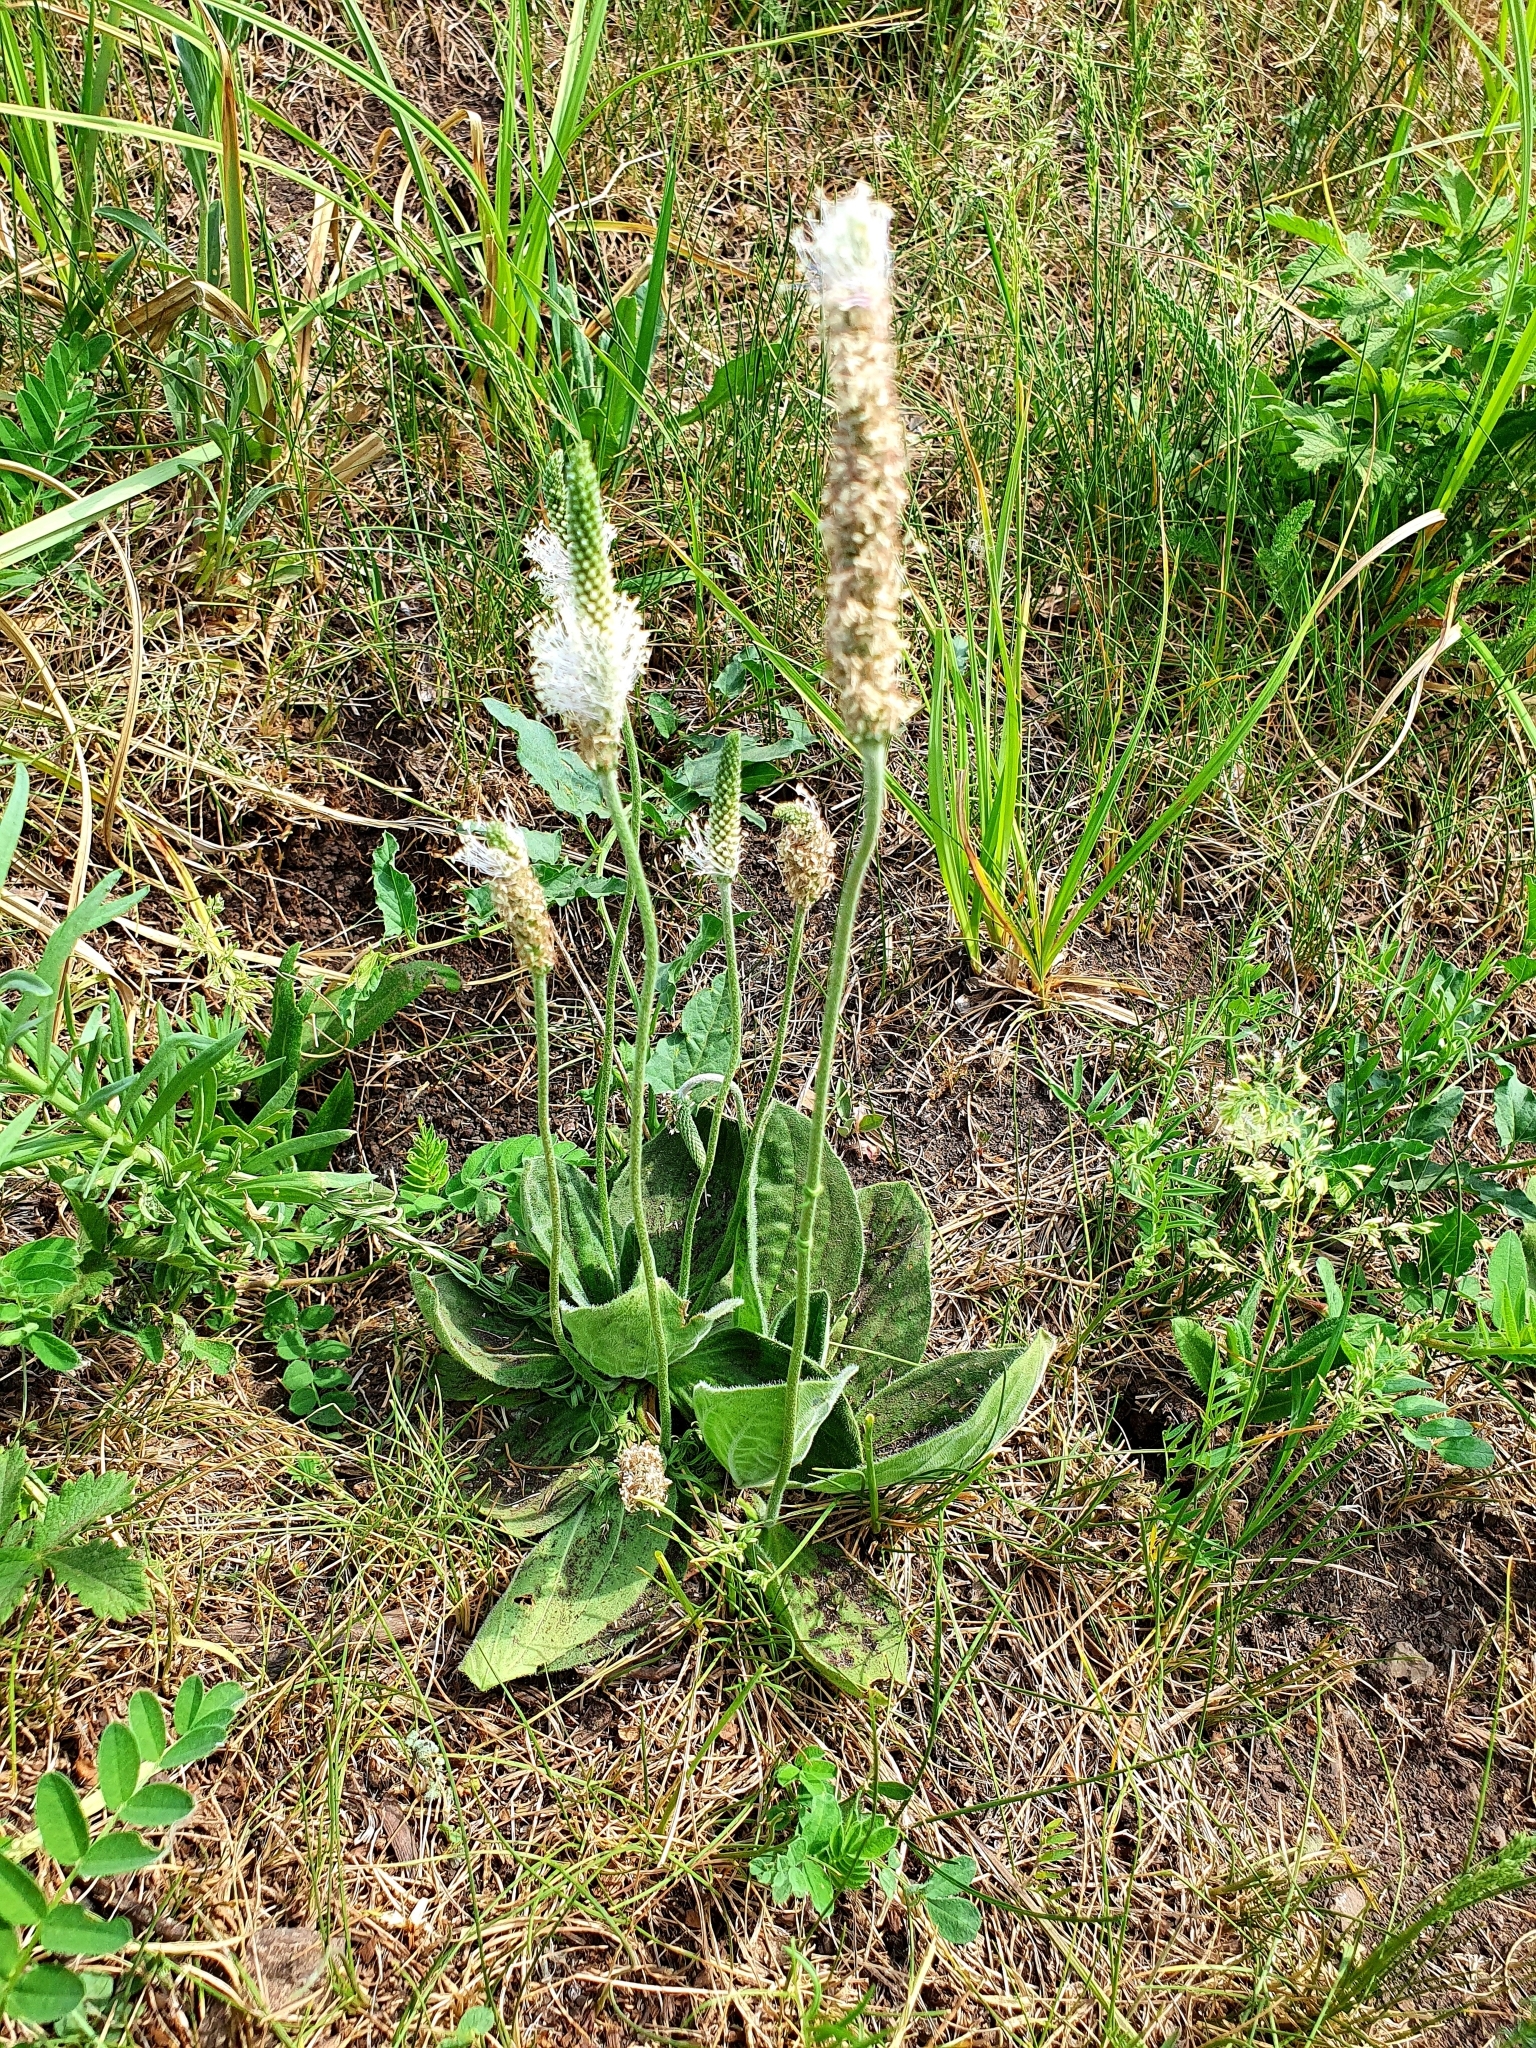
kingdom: Plantae
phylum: Tracheophyta
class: Magnoliopsida
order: Lamiales
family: Plantaginaceae
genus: Plantago
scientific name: Plantago media
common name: Hoary plantain
